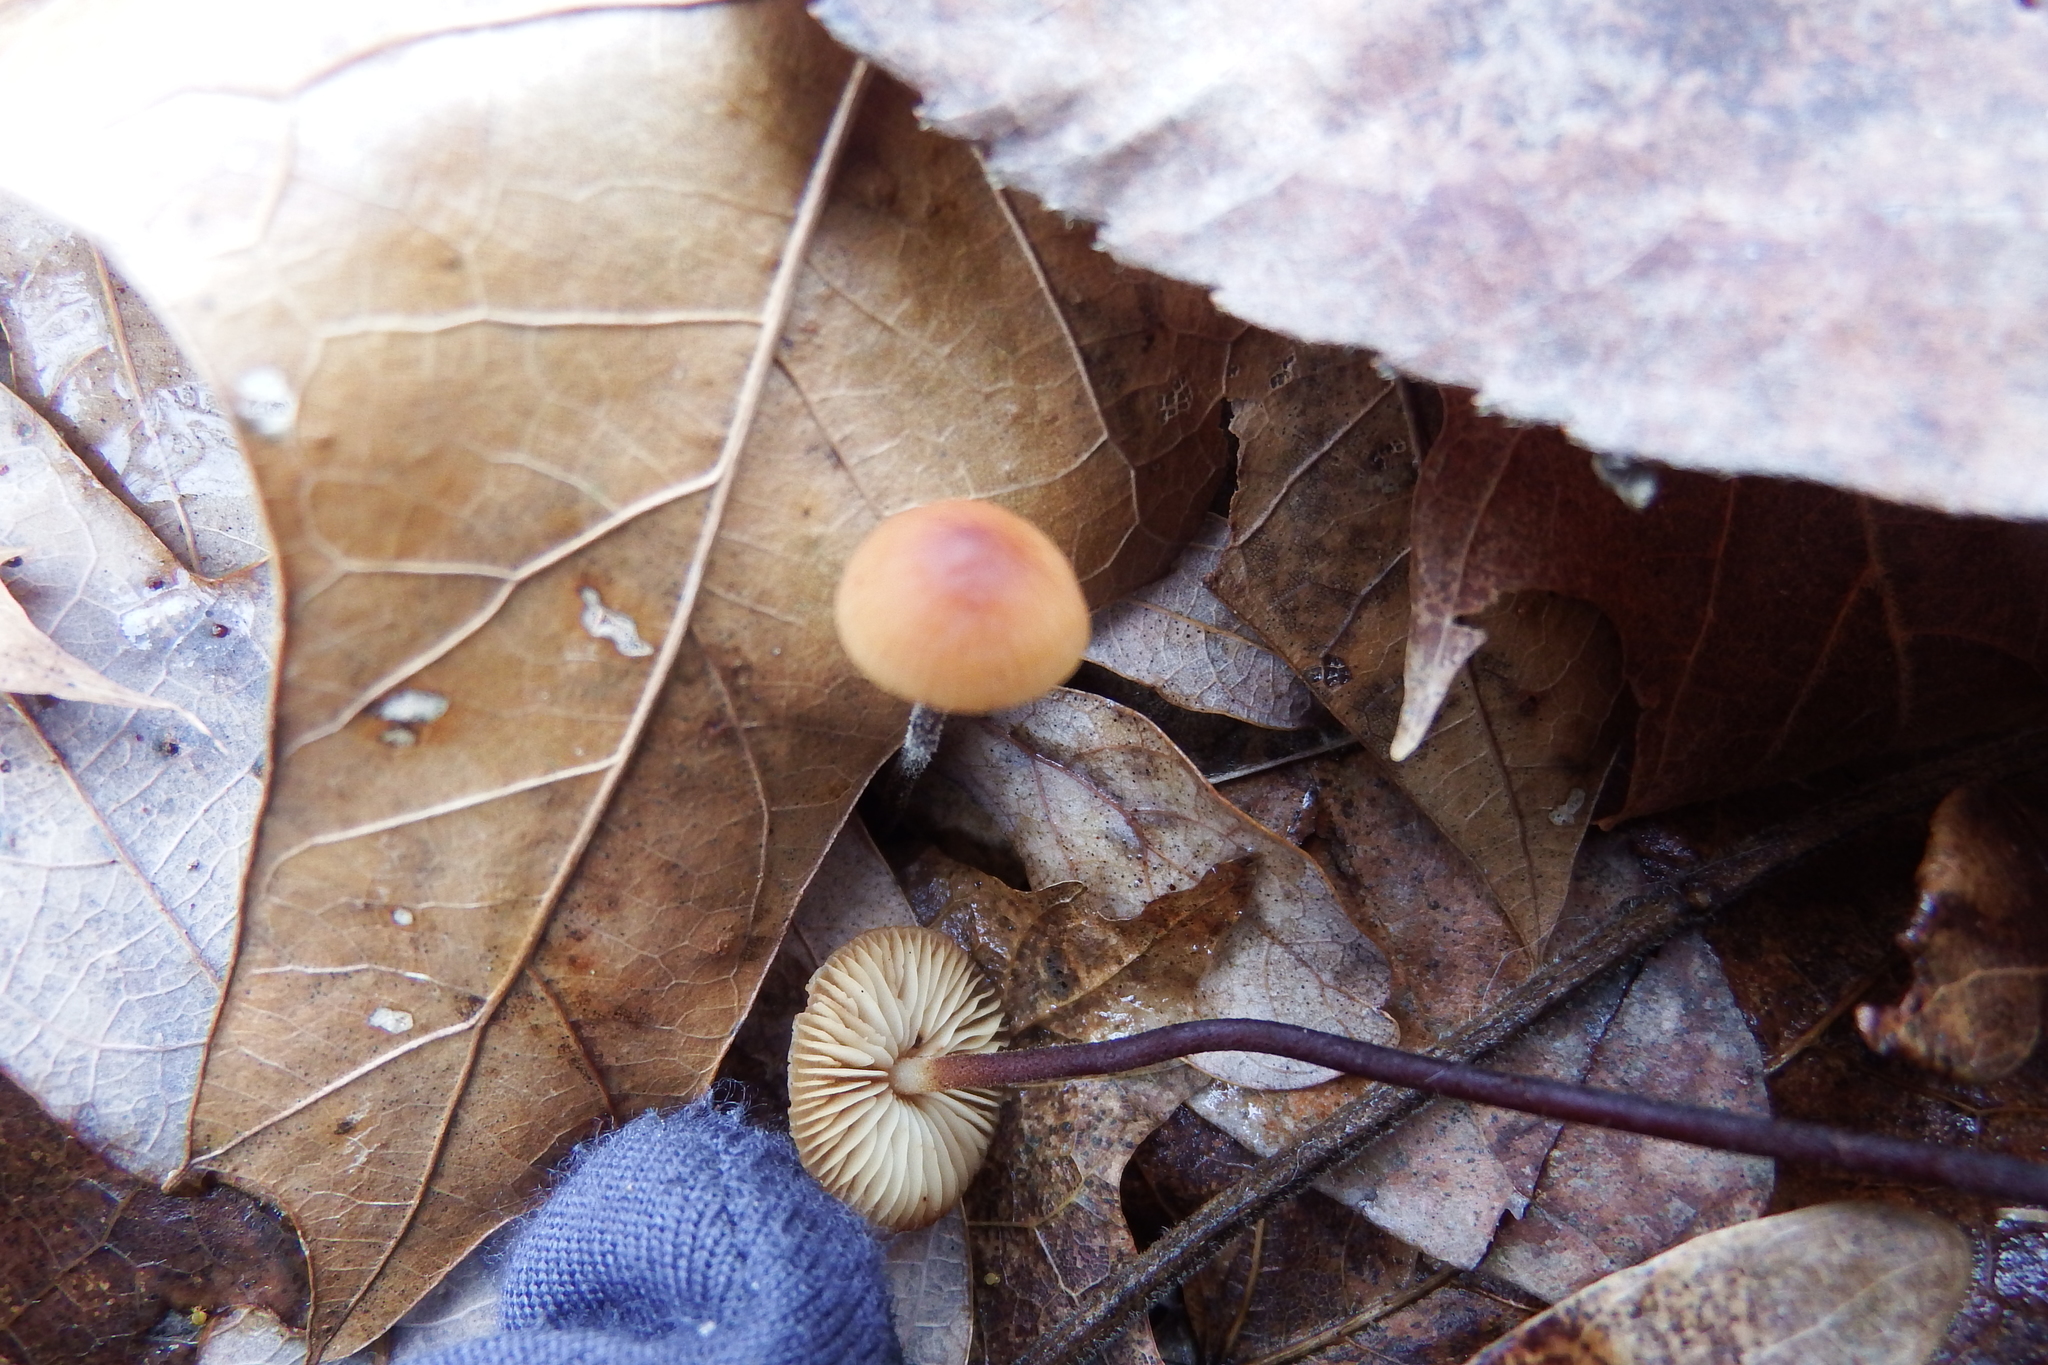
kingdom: Fungi
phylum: Basidiomycota
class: Agaricomycetes
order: Agaricales
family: Physalacriaceae
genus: Rhizomarasmius
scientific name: Rhizomarasmius pyrrhocephalus
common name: Hairy long stem marasmius
